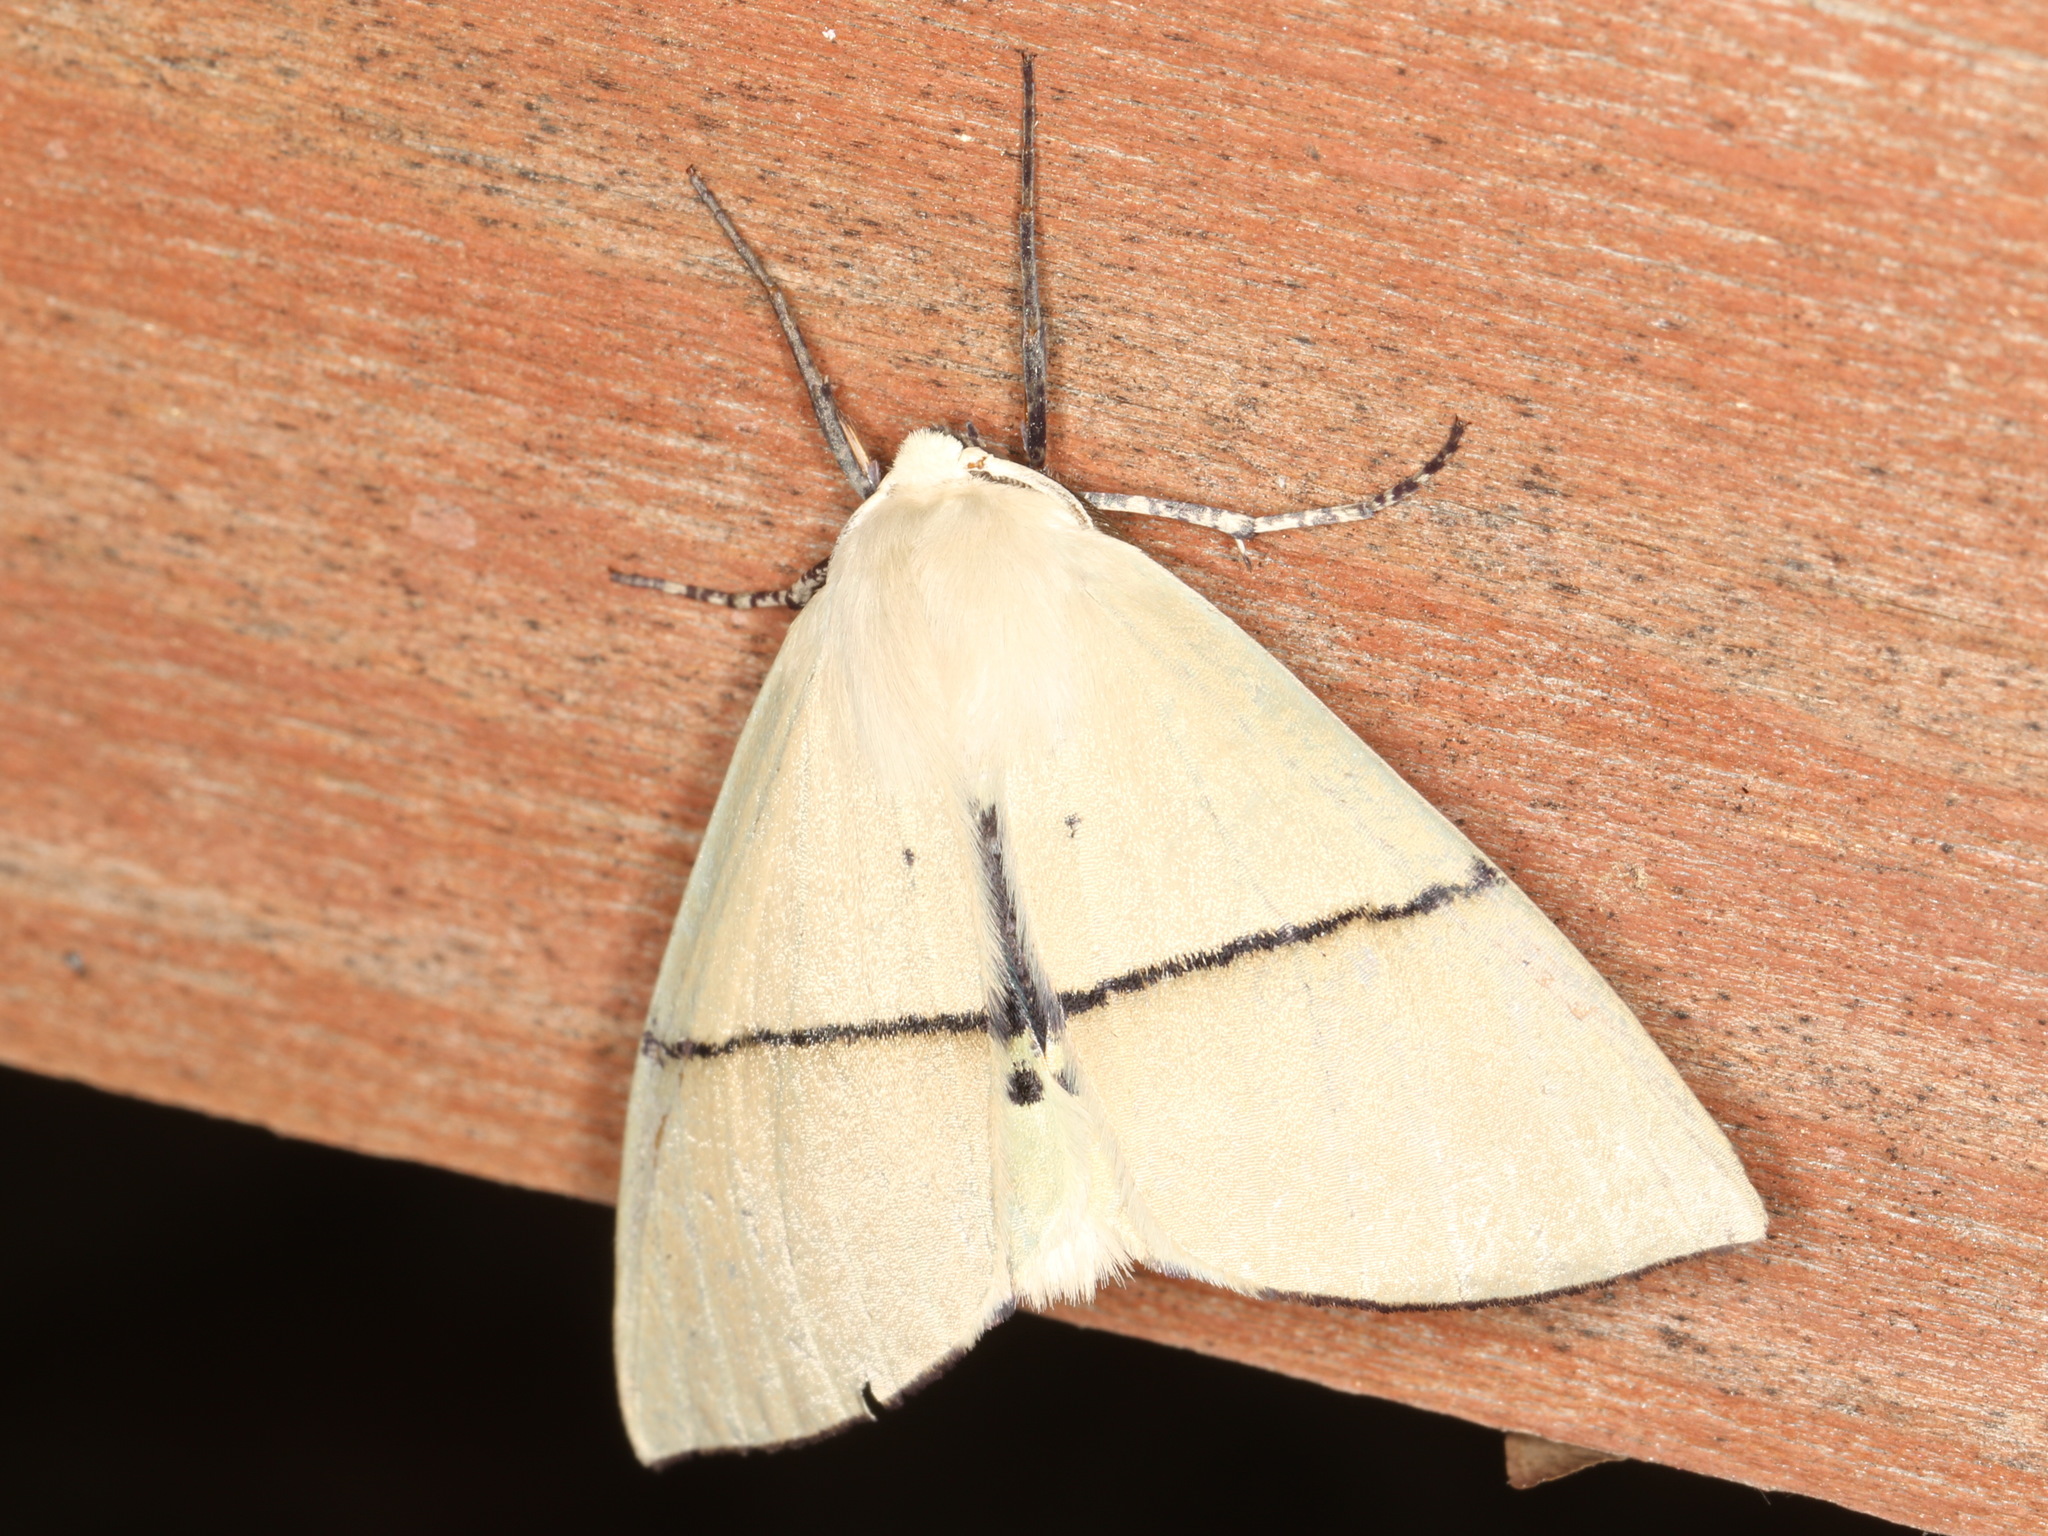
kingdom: Animalia
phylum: Arthropoda
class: Insecta
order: Lepidoptera
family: Geometridae
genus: Gastrophora
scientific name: Gastrophora henricaria
